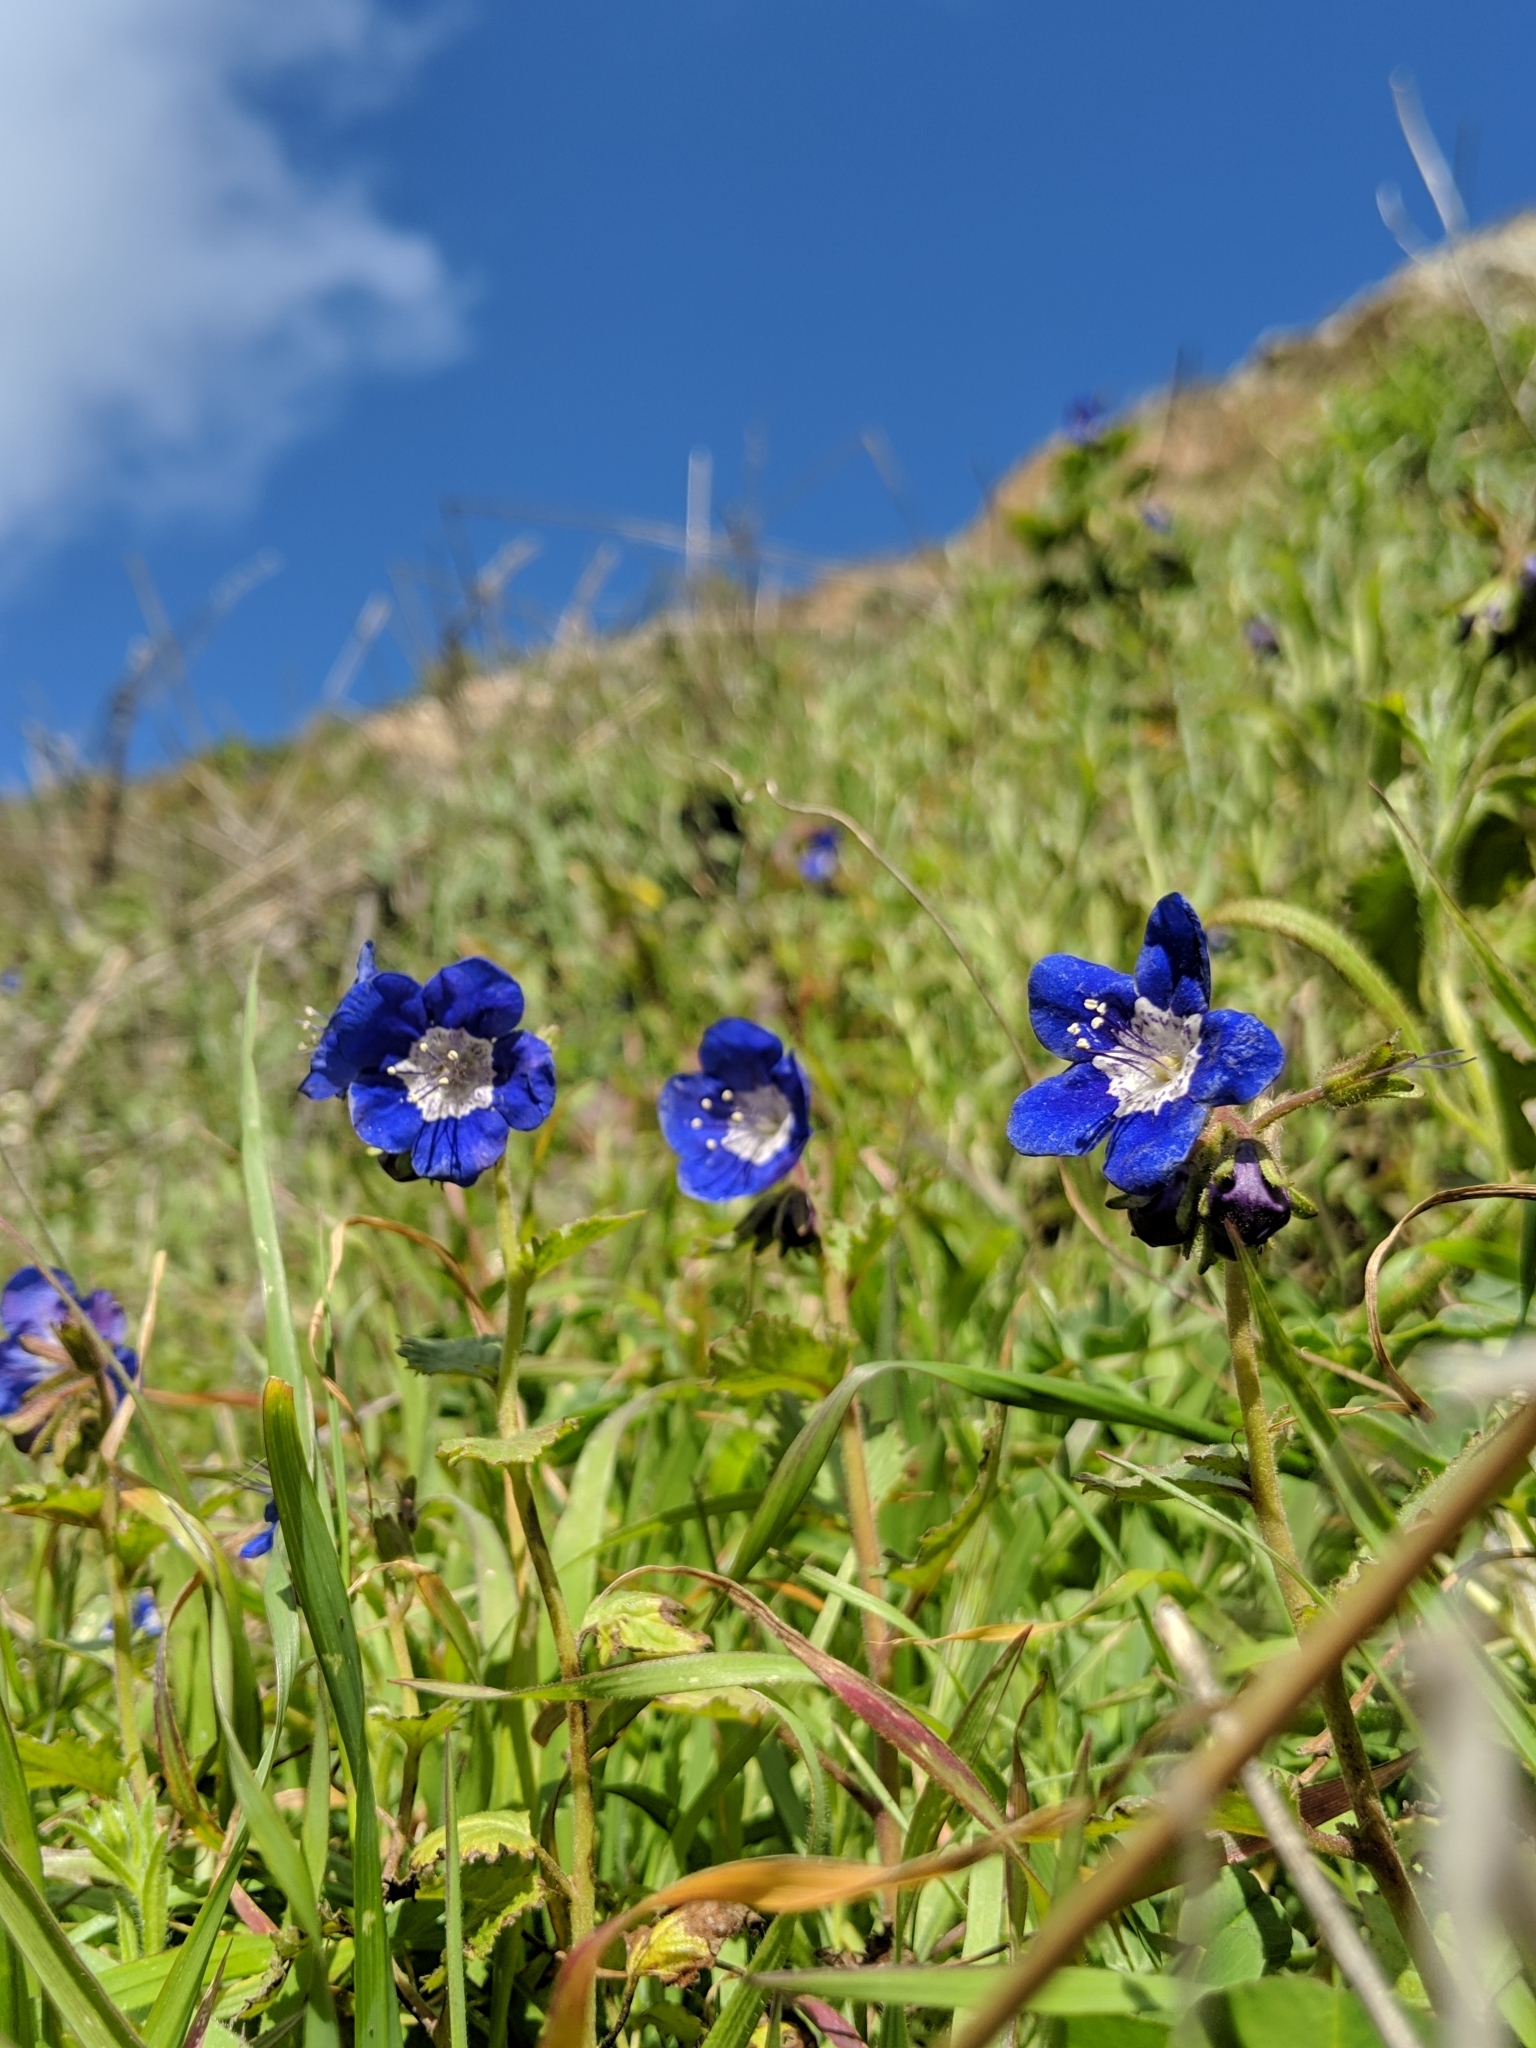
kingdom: Plantae
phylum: Tracheophyta
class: Magnoliopsida
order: Boraginales
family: Hydrophyllaceae
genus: Phacelia
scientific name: Phacelia viscida
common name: Sticky phacelia
